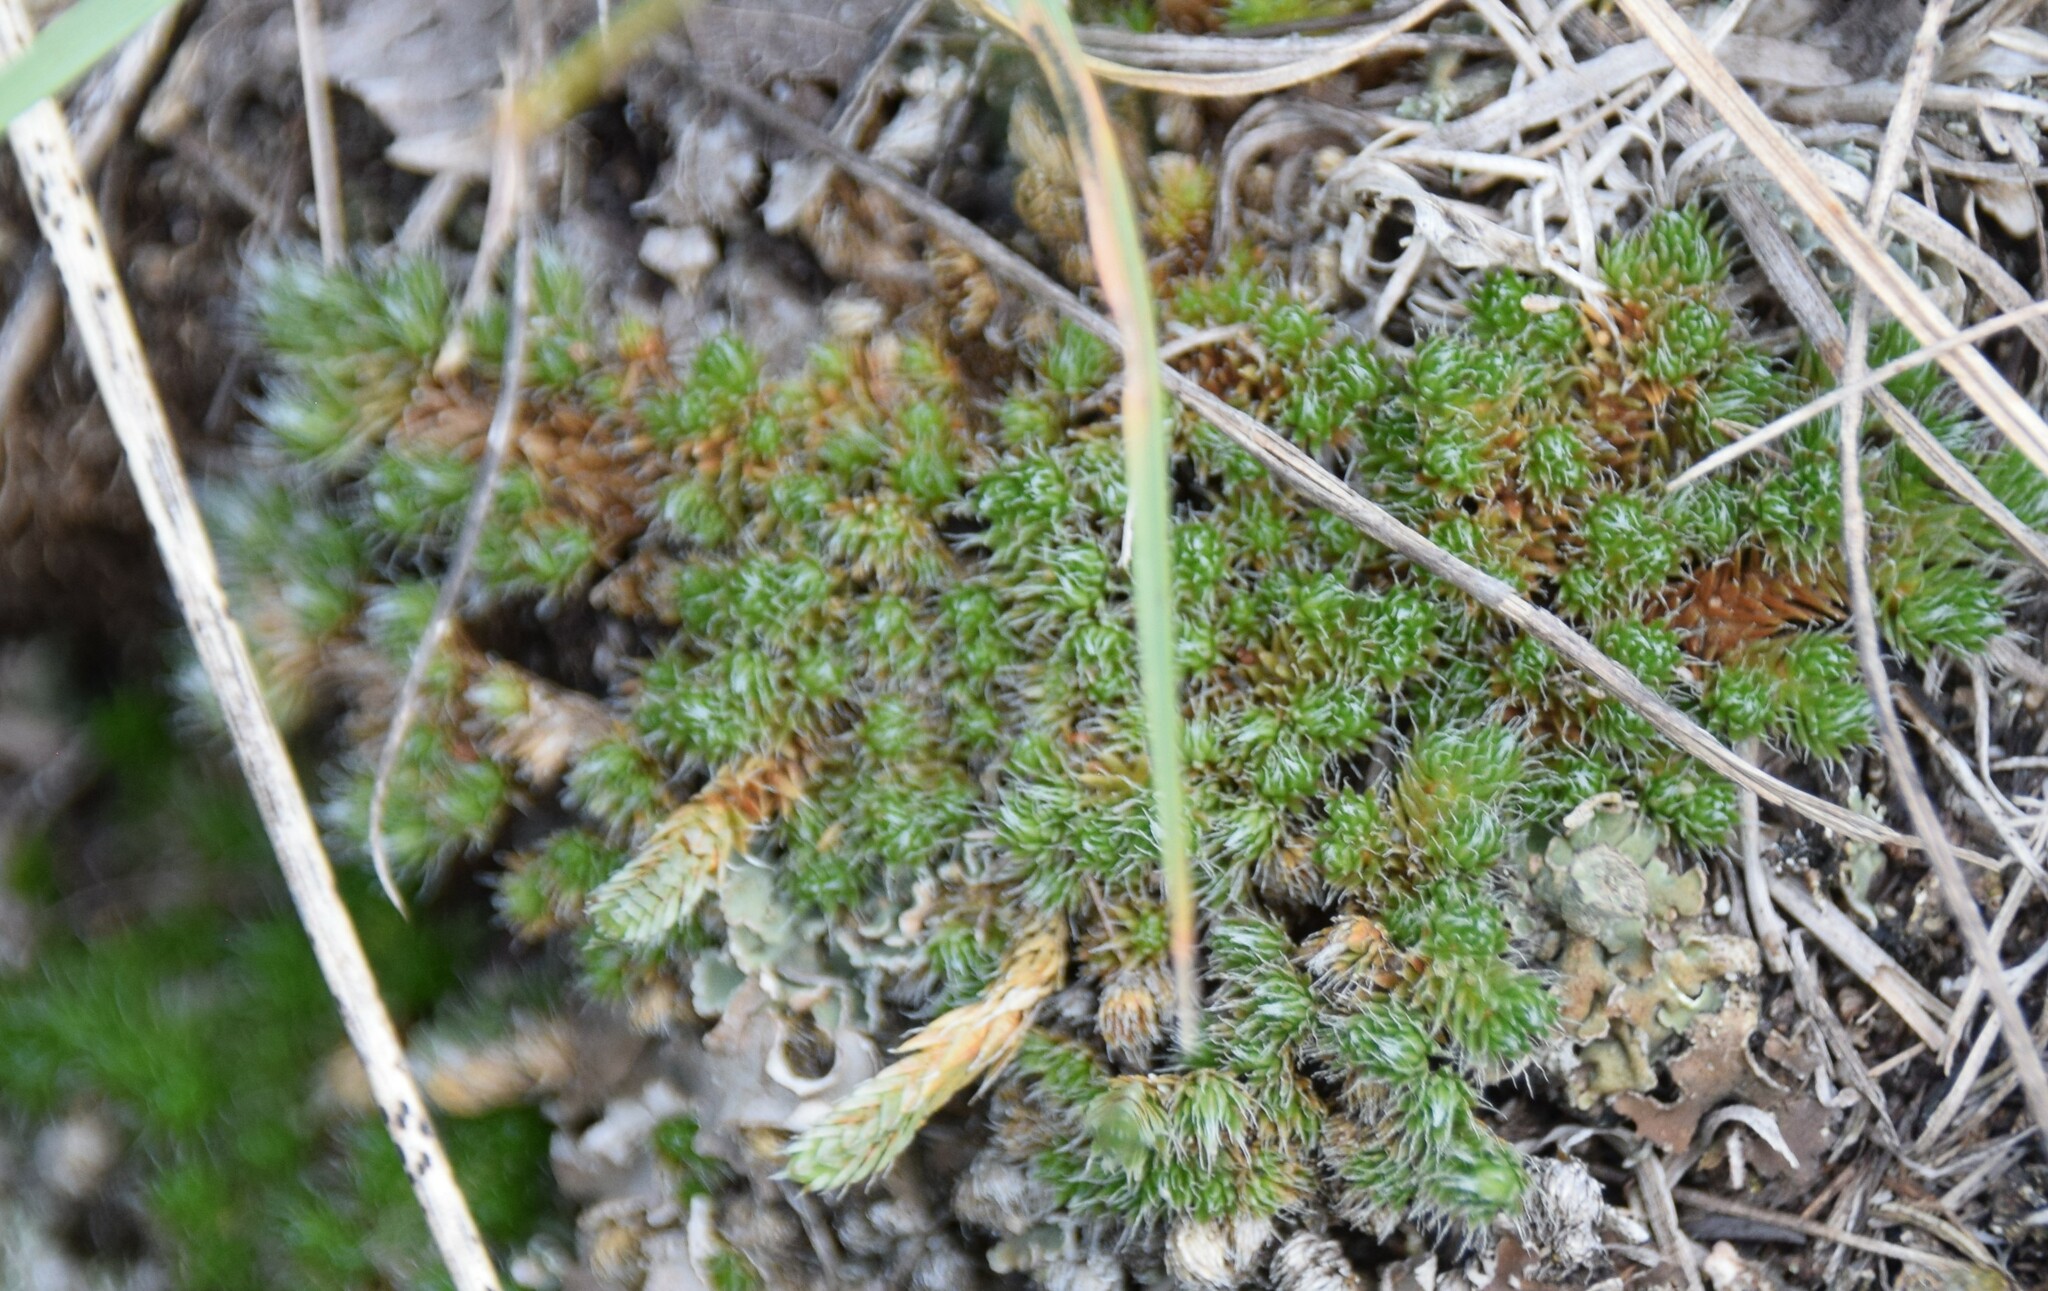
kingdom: Plantae
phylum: Tracheophyta
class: Lycopodiopsida
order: Selaginellales
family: Selaginellaceae
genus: Selaginella
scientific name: Selaginella densa
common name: Mountain spike-moss
